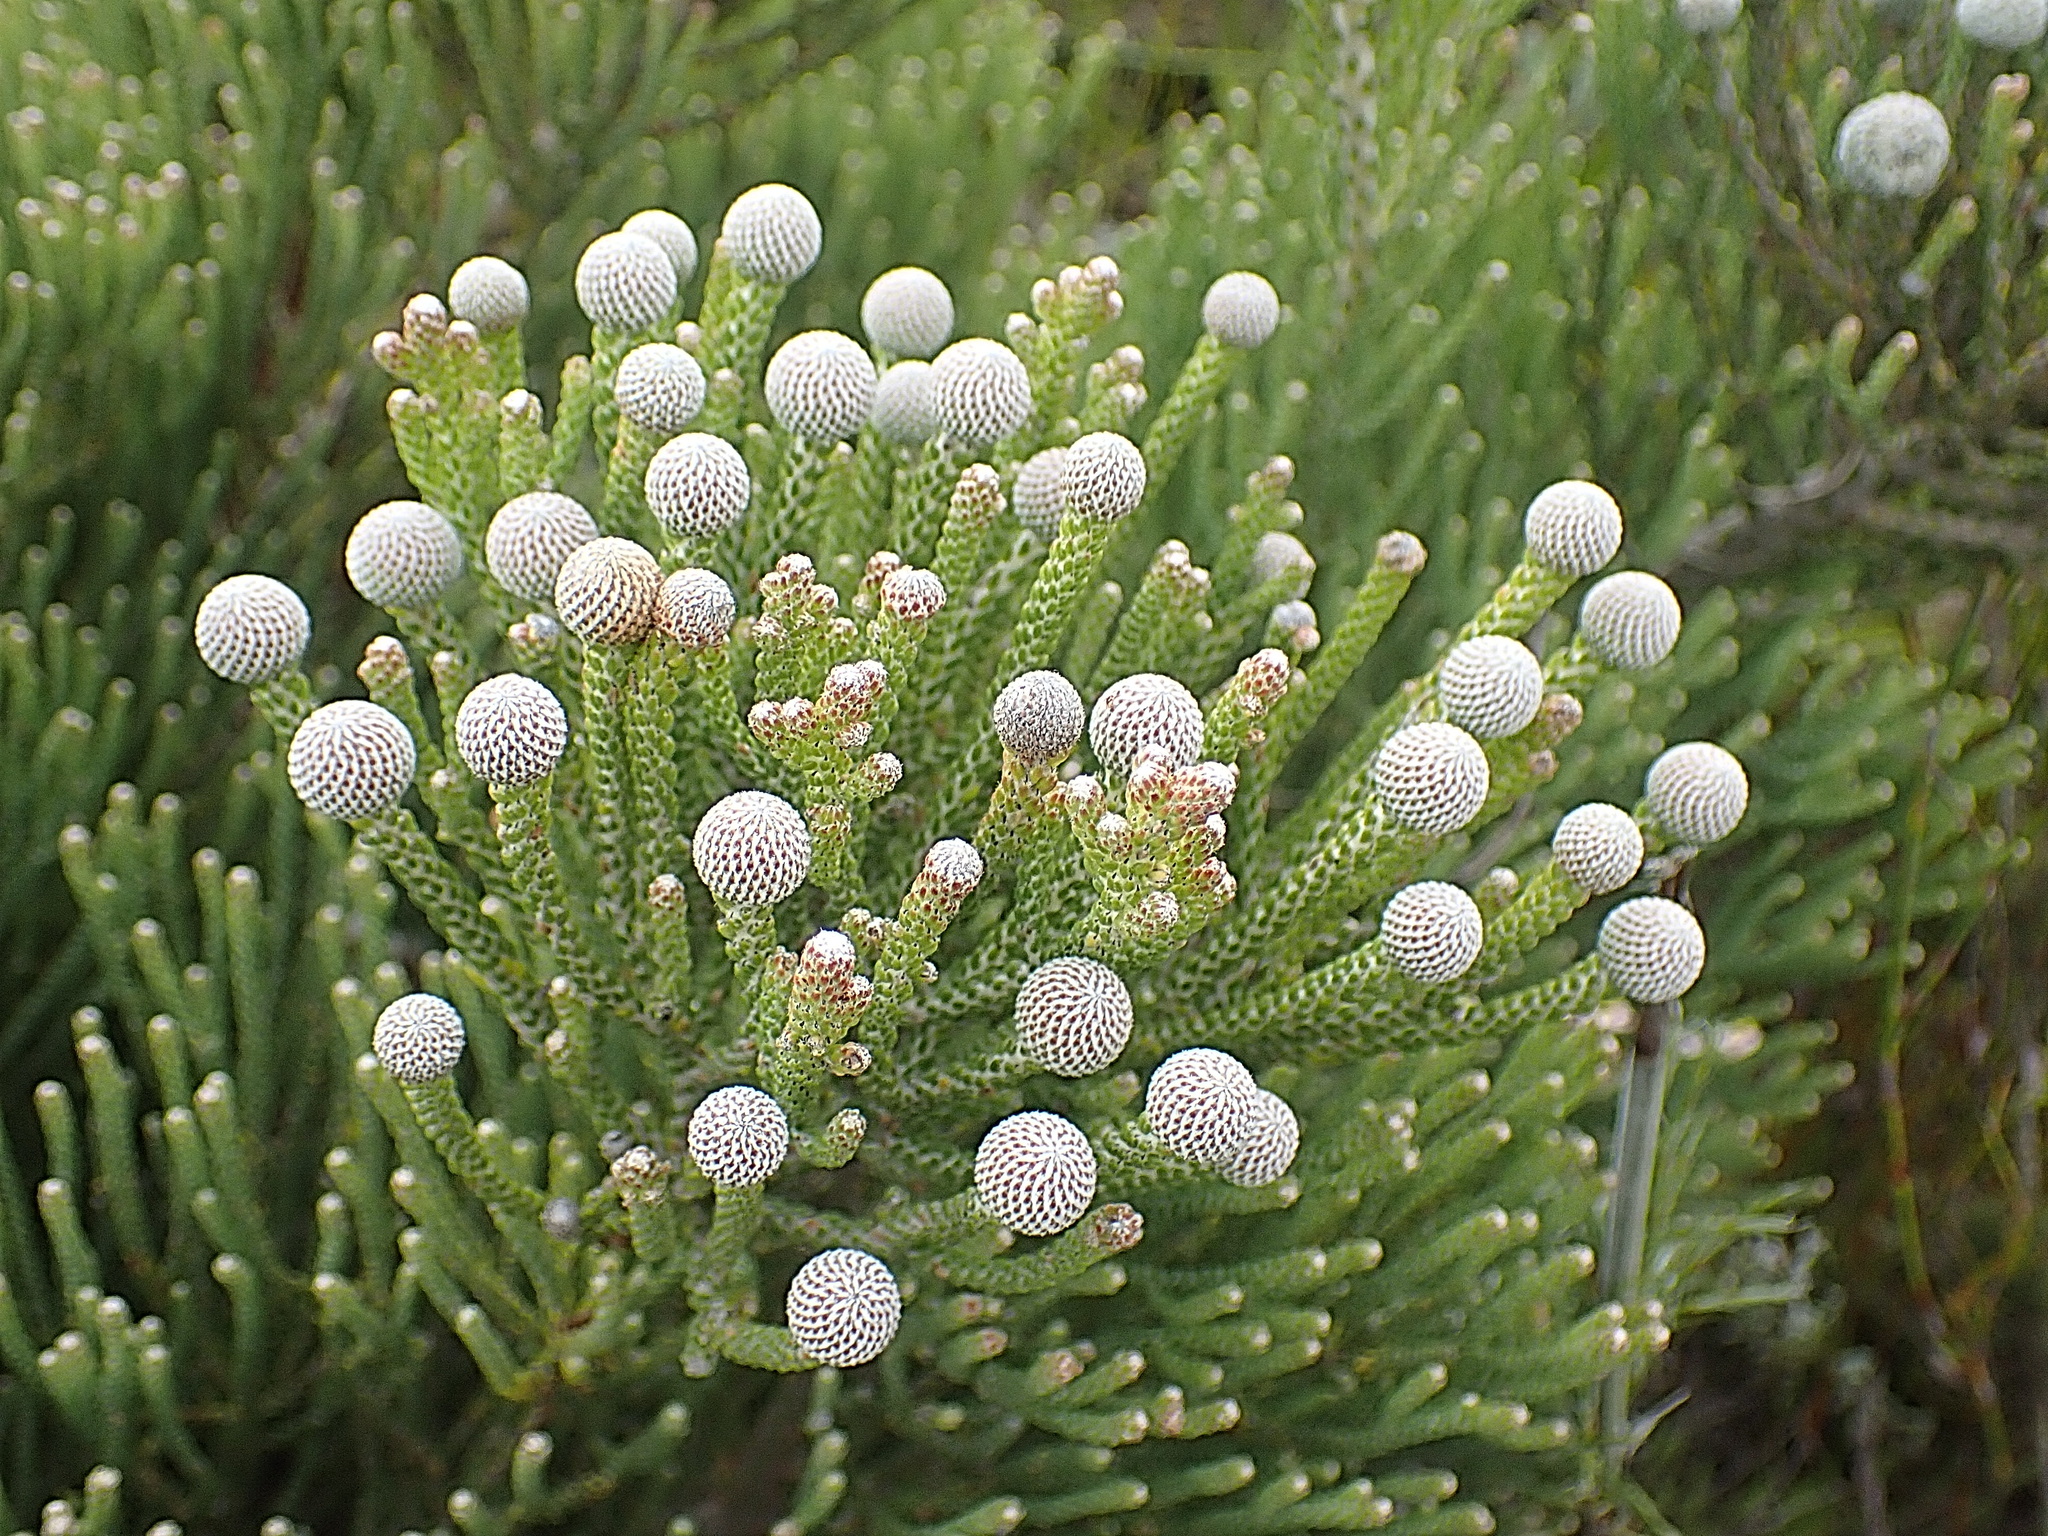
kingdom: Plantae
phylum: Tracheophyta
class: Magnoliopsida
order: Bruniales
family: Bruniaceae
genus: Brunia
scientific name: Brunia noduliflora
